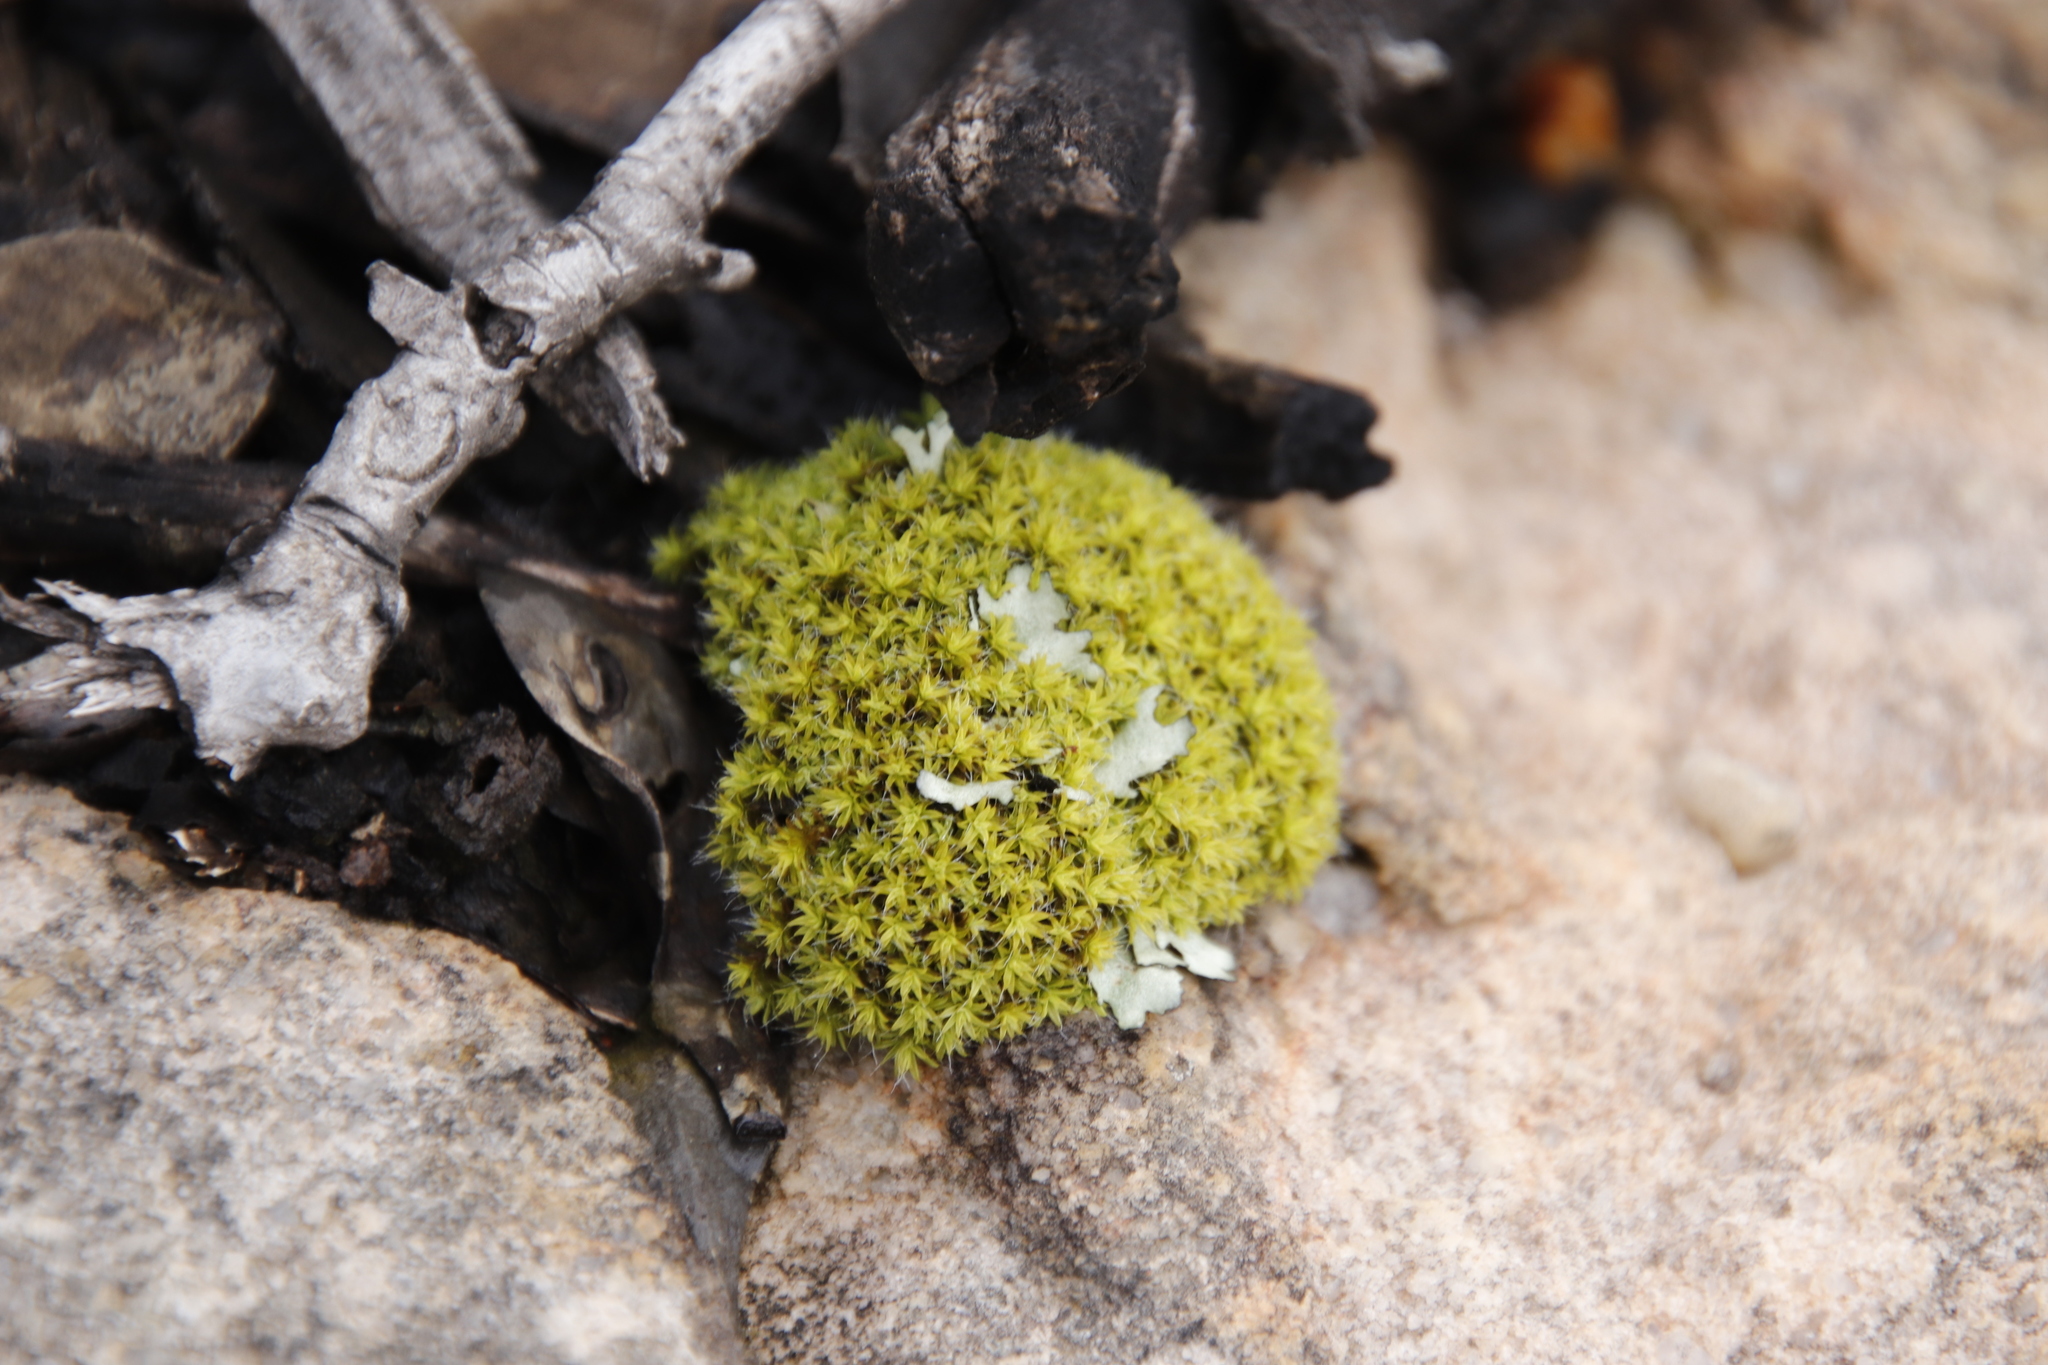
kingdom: Plantae
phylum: Bryophyta
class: Bryopsida
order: Pottiales
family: Pottiaceae
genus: Pseudocrossidium
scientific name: Pseudocrossidium crinitum
